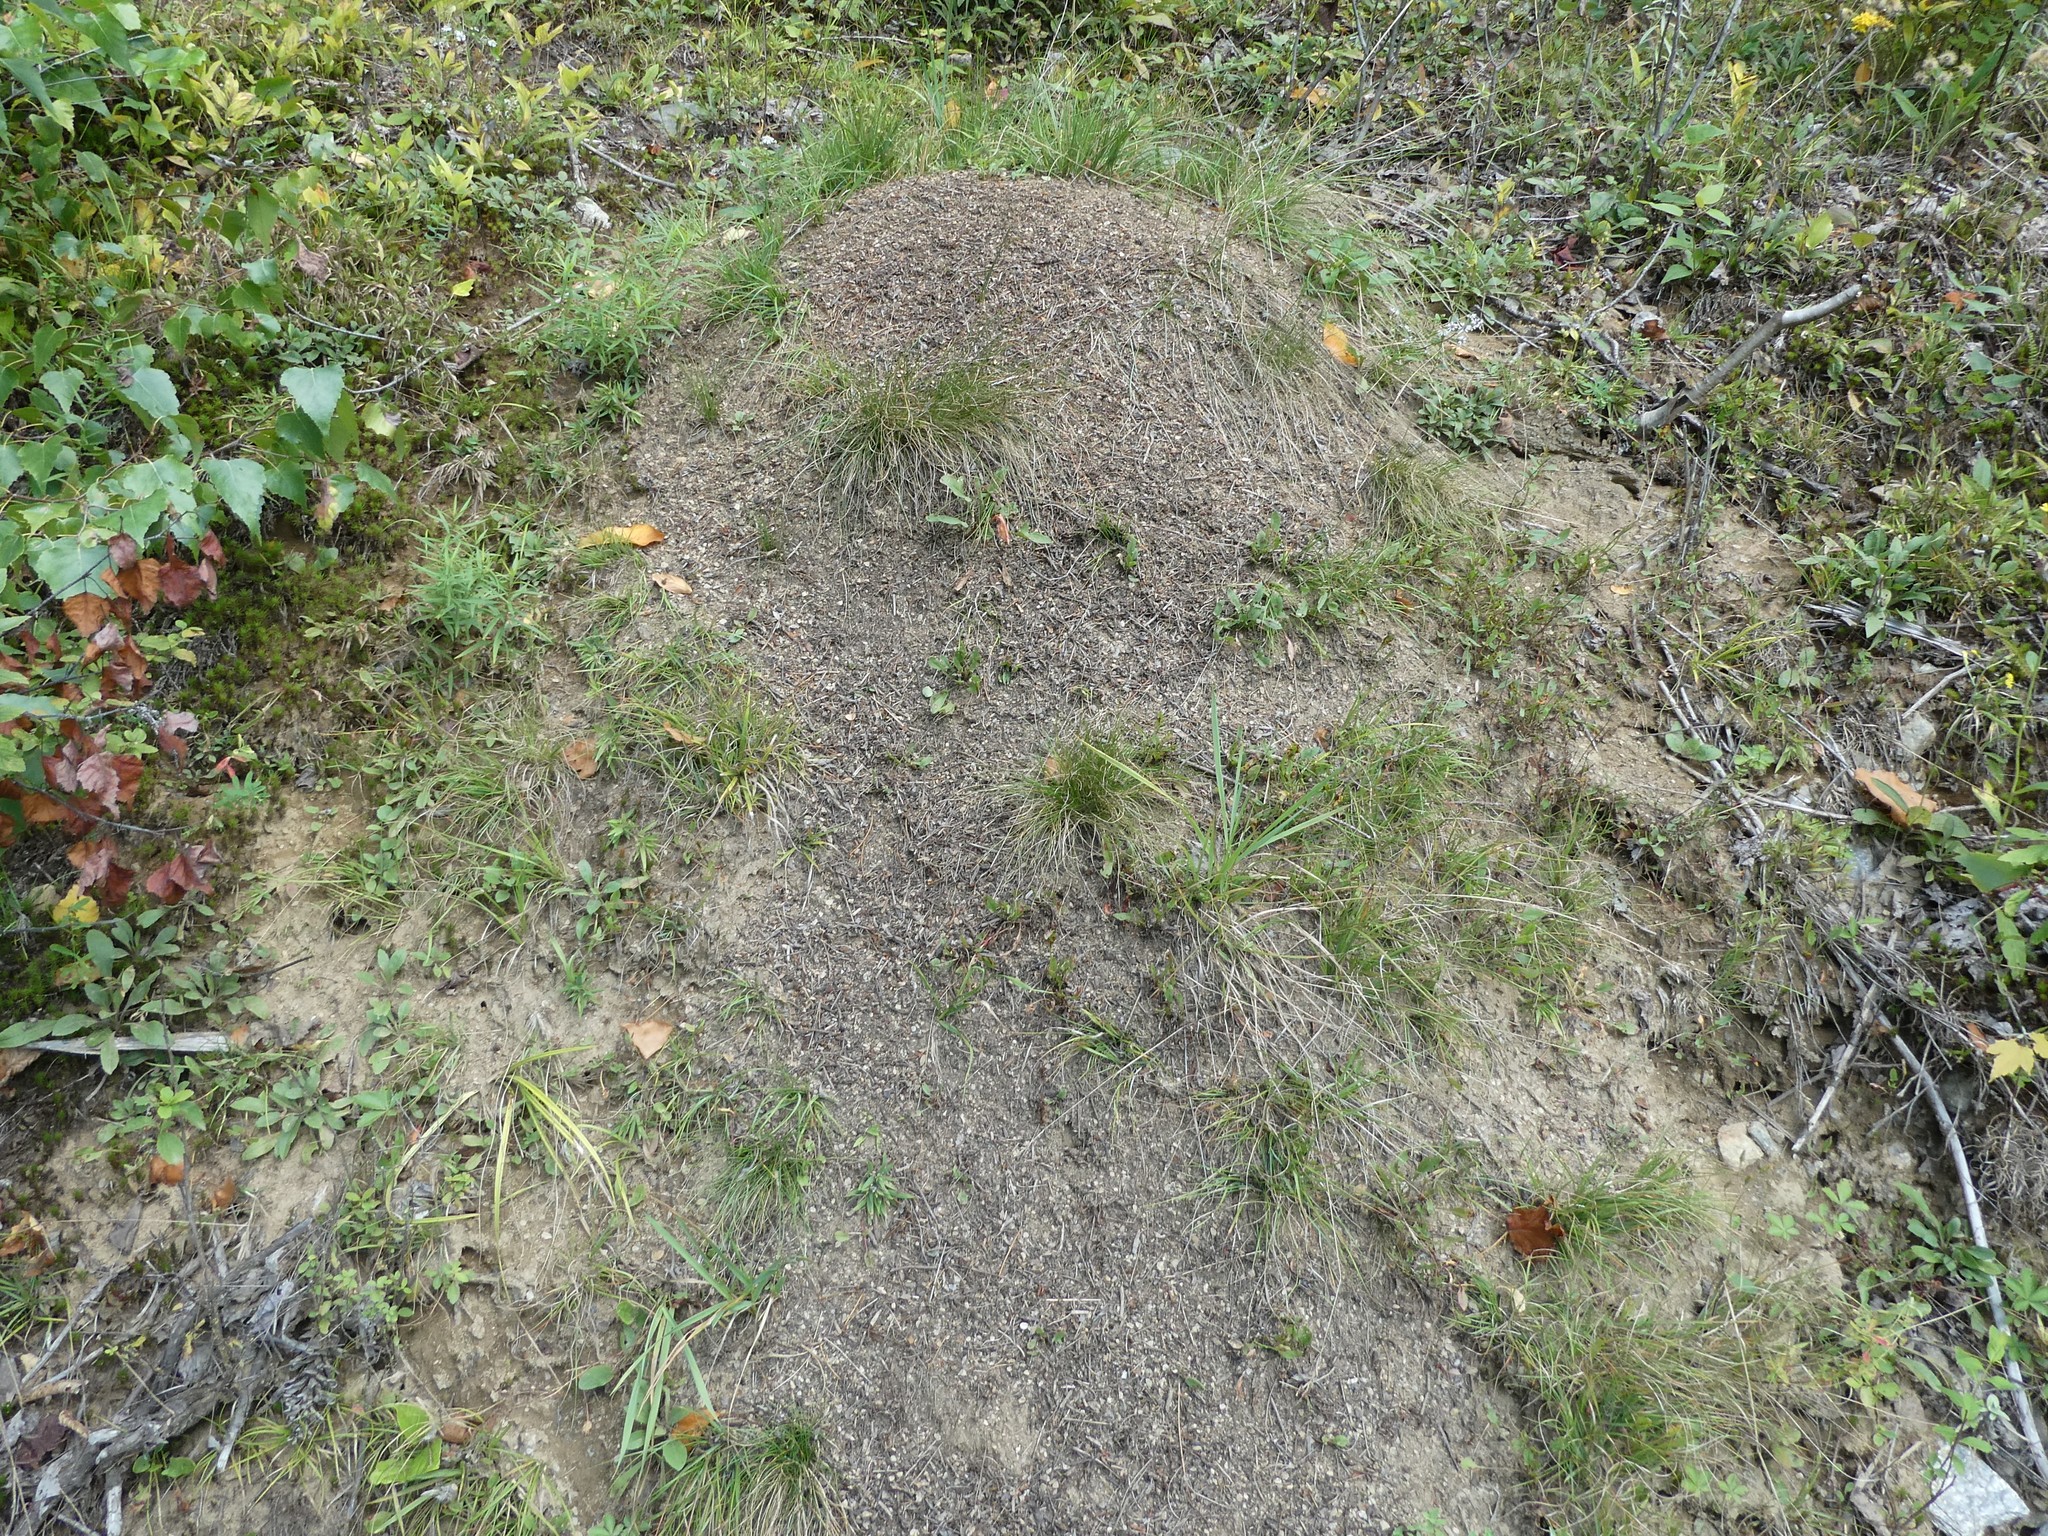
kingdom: Animalia
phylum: Arthropoda
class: Insecta
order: Hymenoptera
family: Formicidae
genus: Formica
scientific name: Formica exsectoides
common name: Allegheny mound ant
